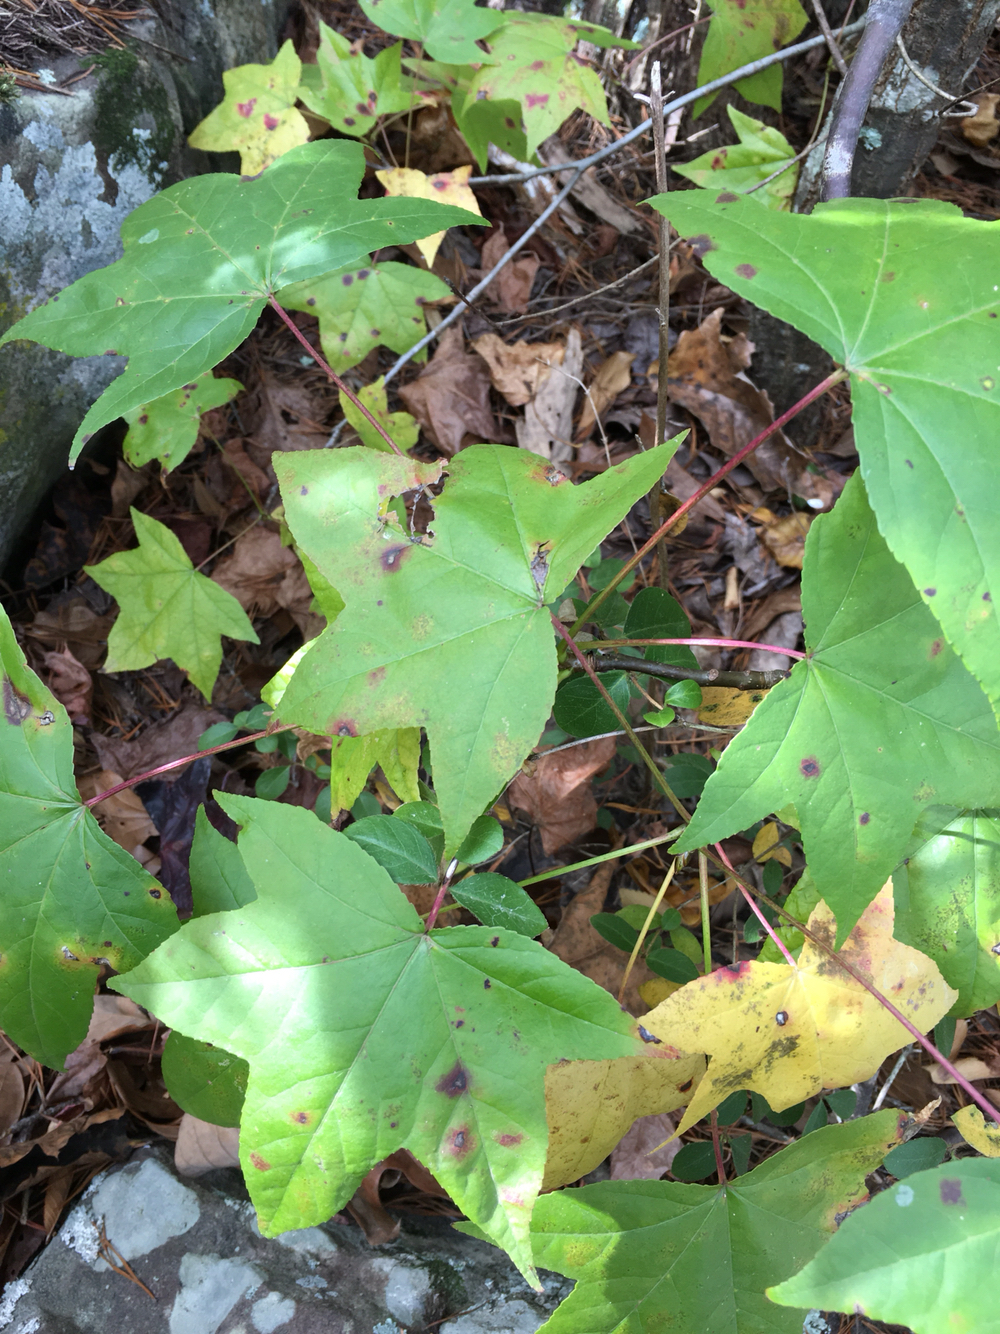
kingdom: Plantae
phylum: Tracheophyta
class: Magnoliopsida
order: Saxifragales
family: Altingiaceae
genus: Liquidambar
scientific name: Liquidambar styraciflua
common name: Sweet gum
